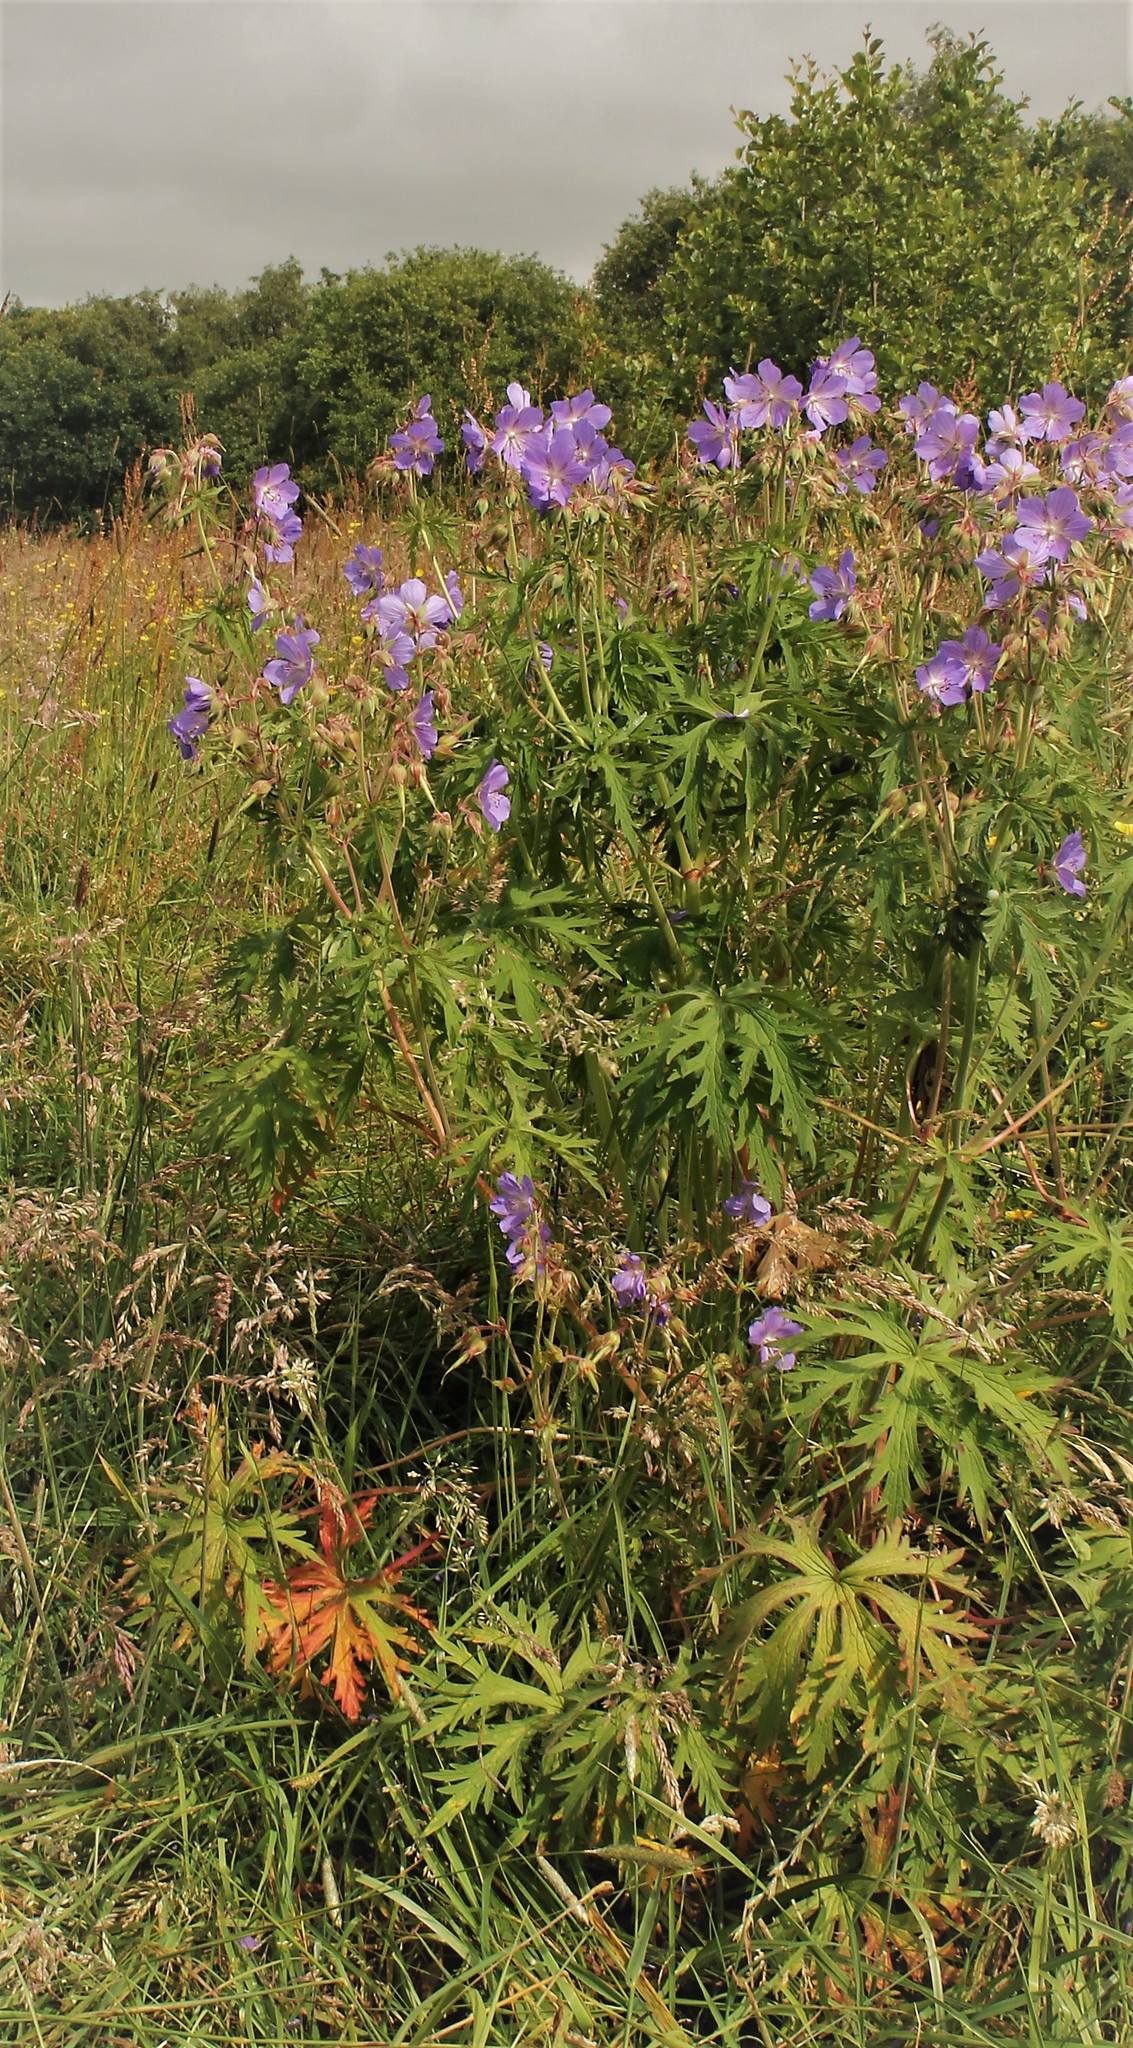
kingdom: Plantae
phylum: Tracheophyta
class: Magnoliopsida
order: Geraniales
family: Geraniaceae
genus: Geranium
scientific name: Geranium pratense
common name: Meadow crane's-bill
